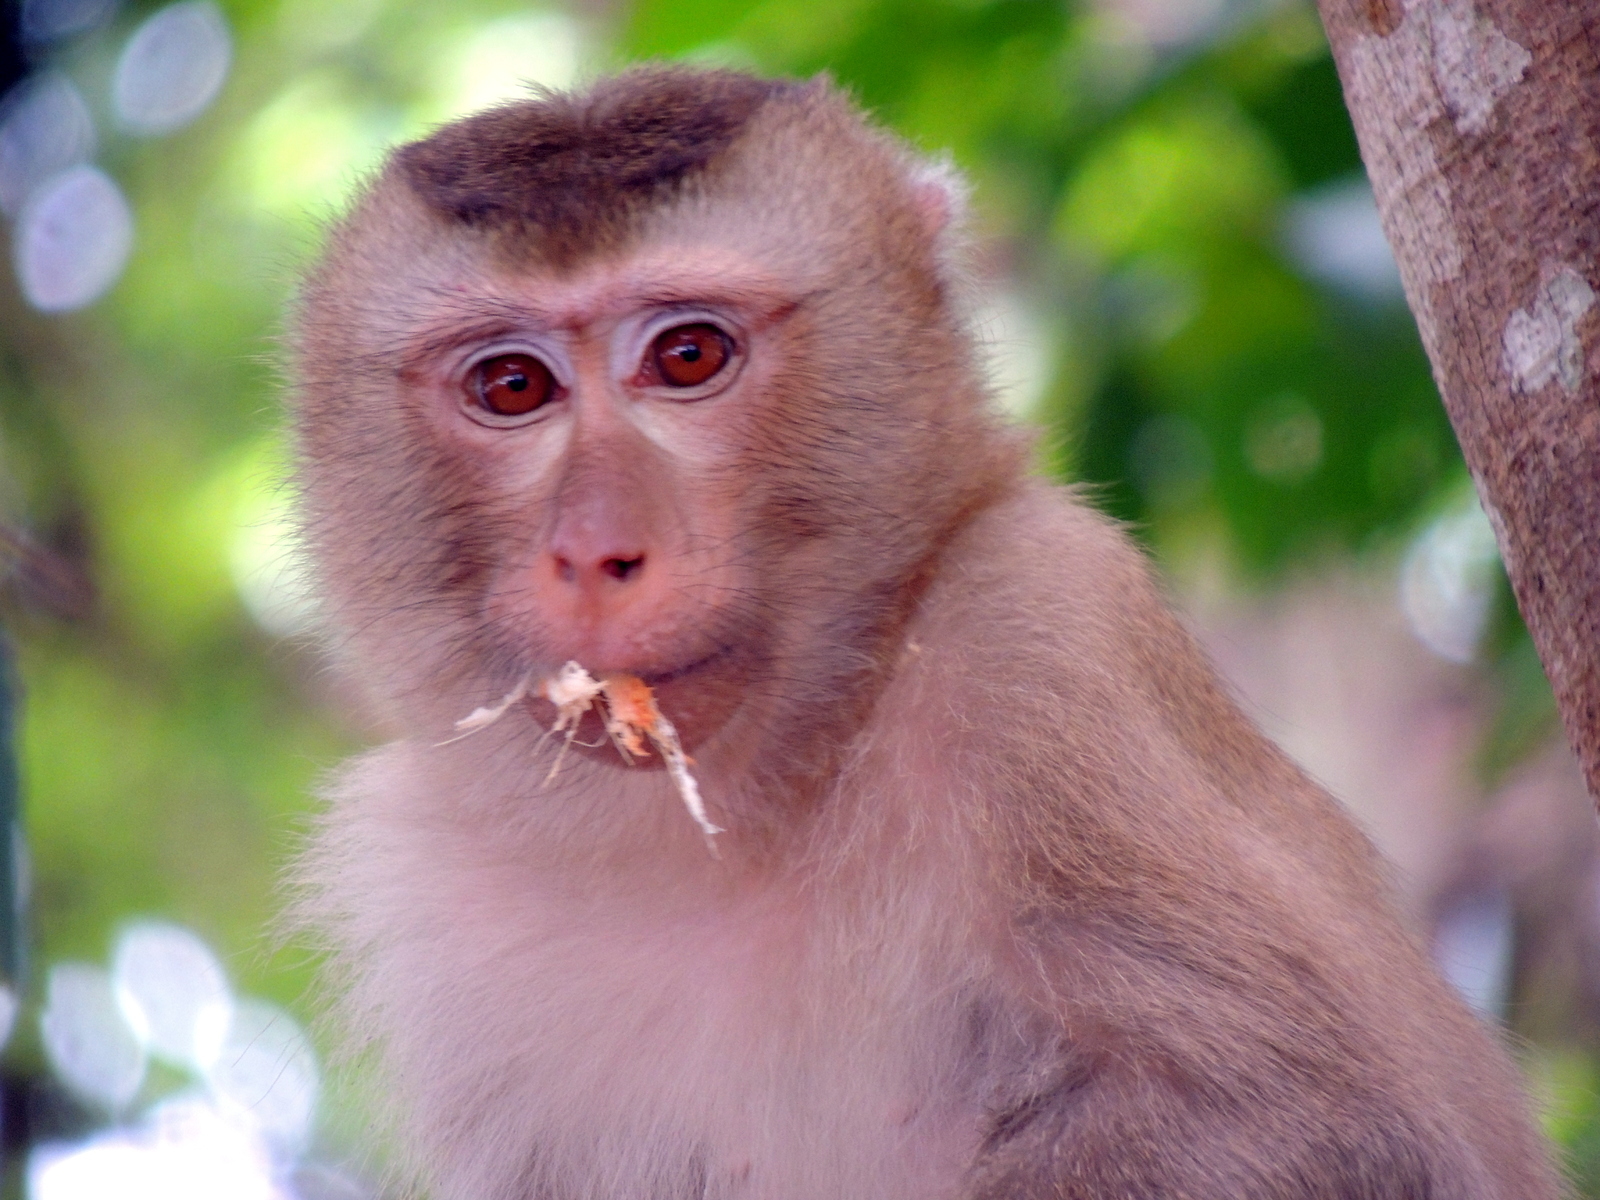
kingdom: Animalia
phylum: Chordata
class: Mammalia
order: Primates
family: Cercopithecidae
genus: Macaca
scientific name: Macaca leonina
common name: Northern pig-tailed macaque
